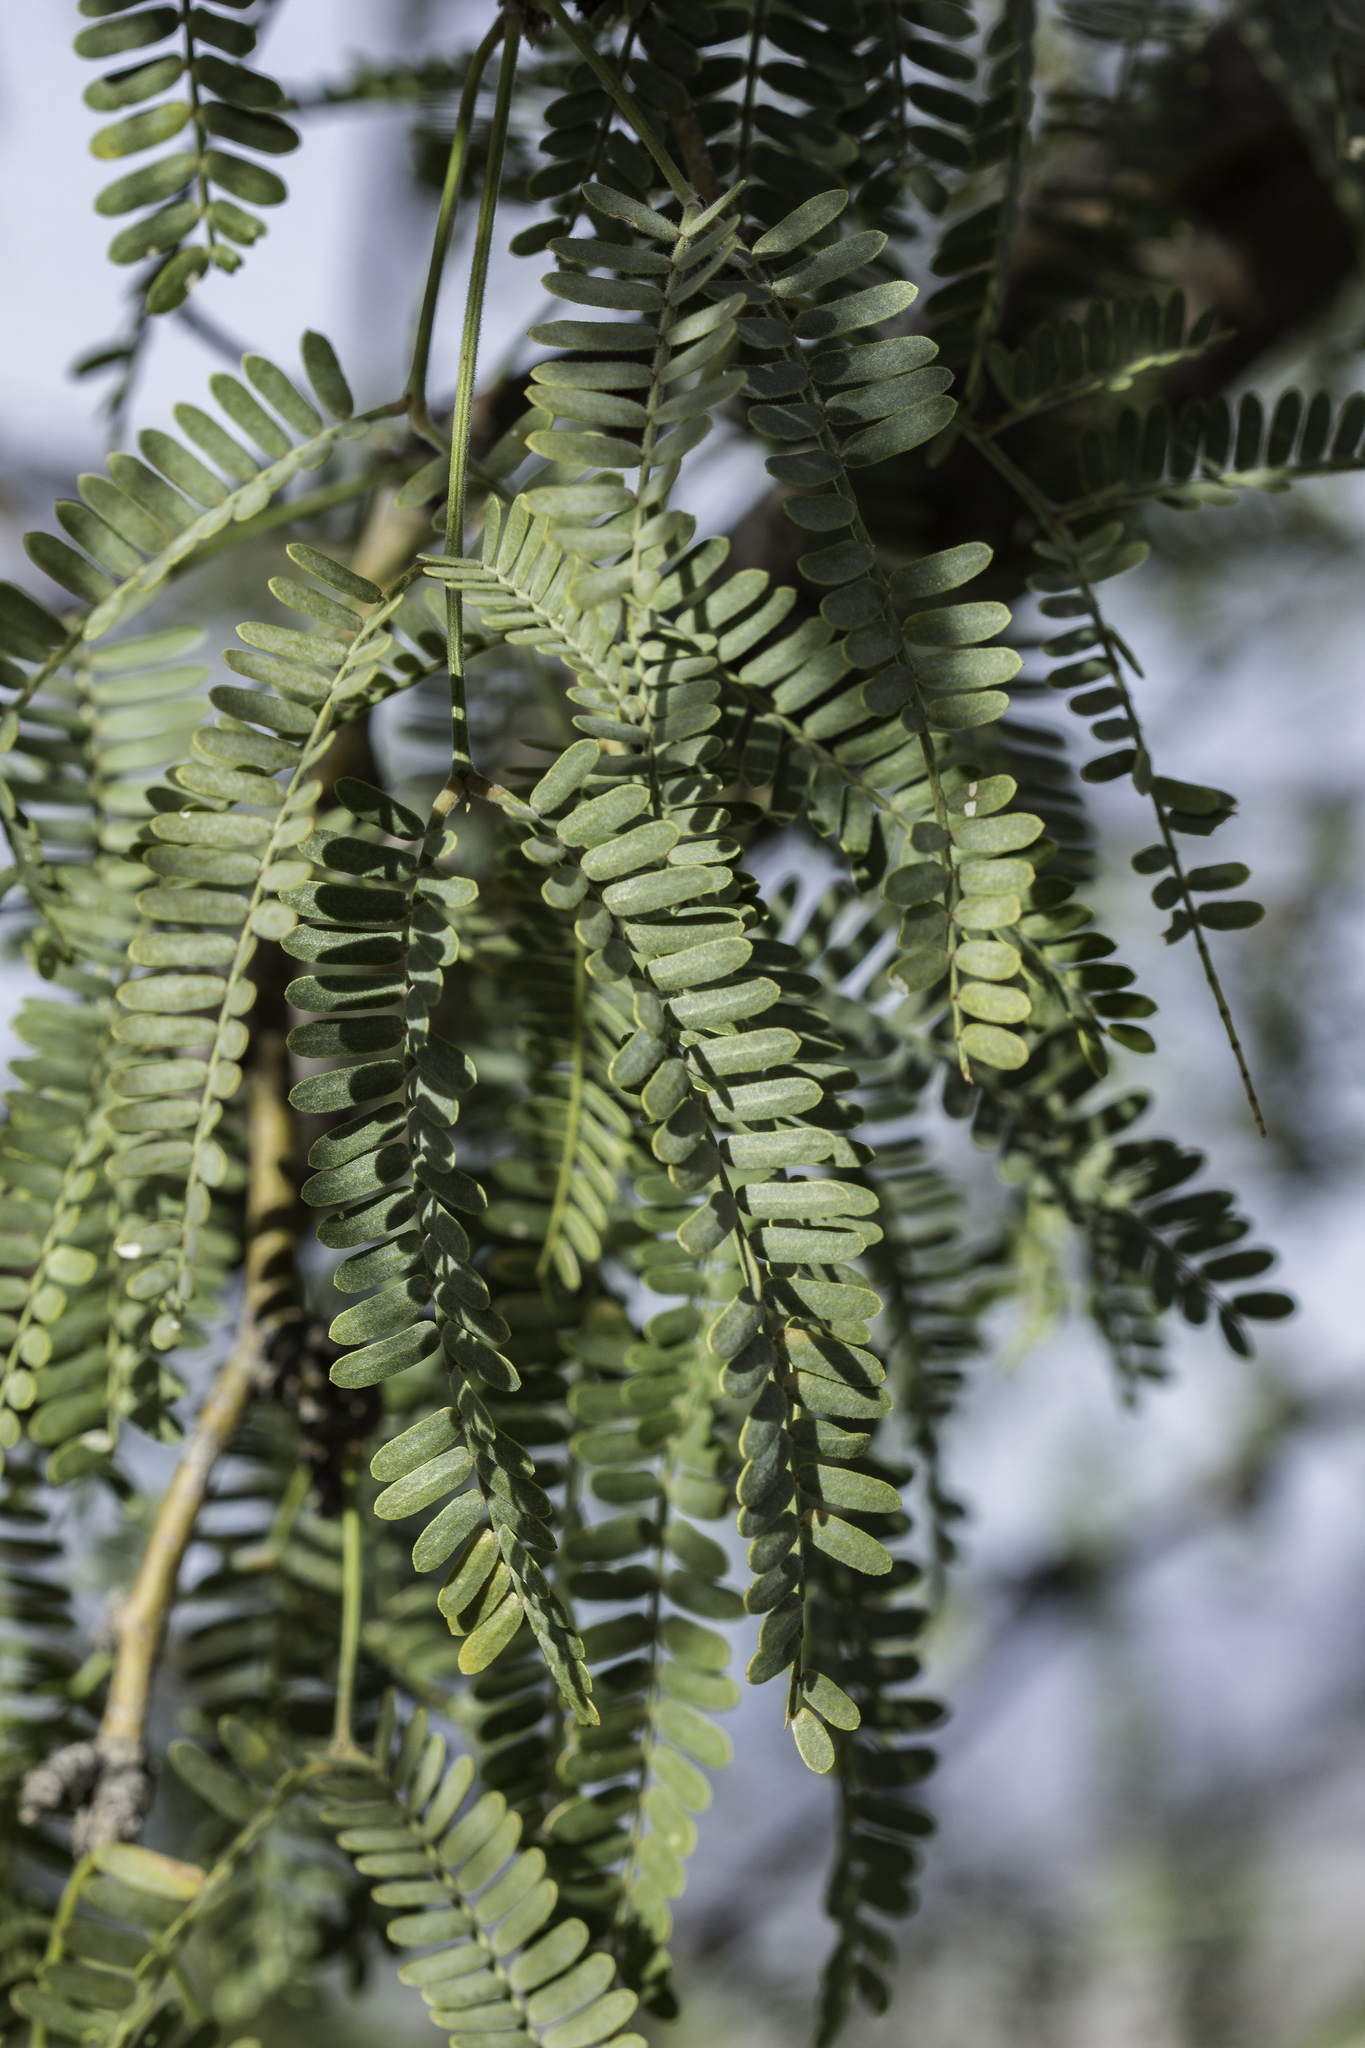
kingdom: Plantae
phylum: Tracheophyta
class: Magnoliopsida
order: Fabales
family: Fabaceae
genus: Prosopis
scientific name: Prosopis velutina
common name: Velvet mesquite
